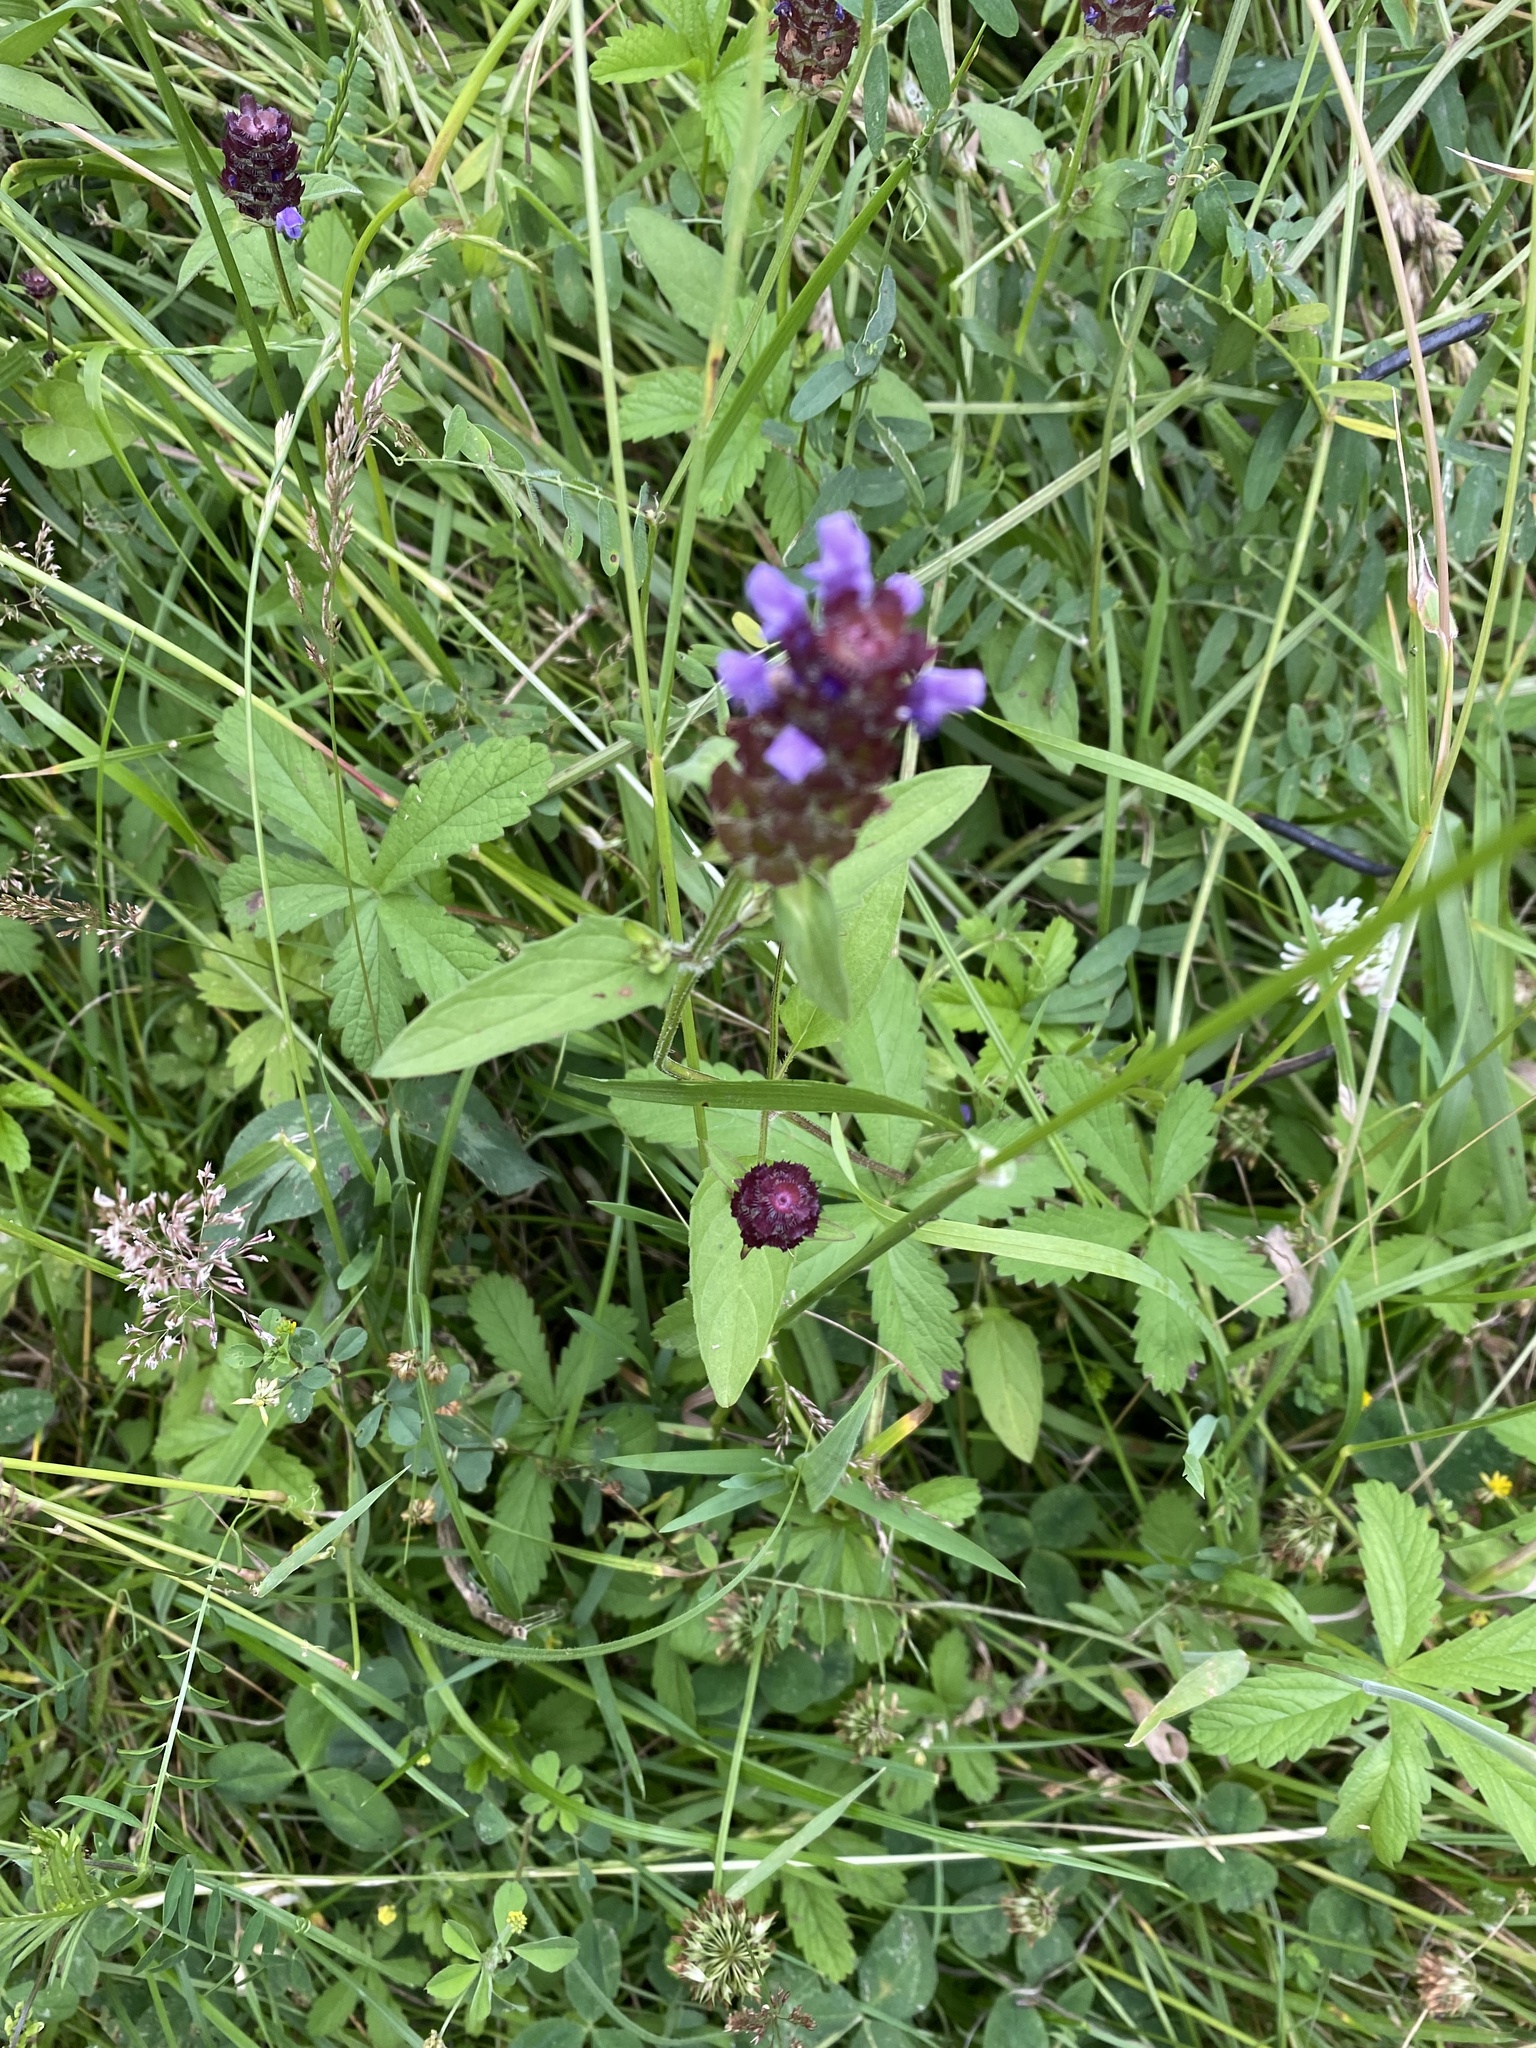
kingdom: Plantae
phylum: Tracheophyta
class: Magnoliopsida
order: Lamiales
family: Lamiaceae
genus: Prunella
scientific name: Prunella vulgaris
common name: Heal-all
